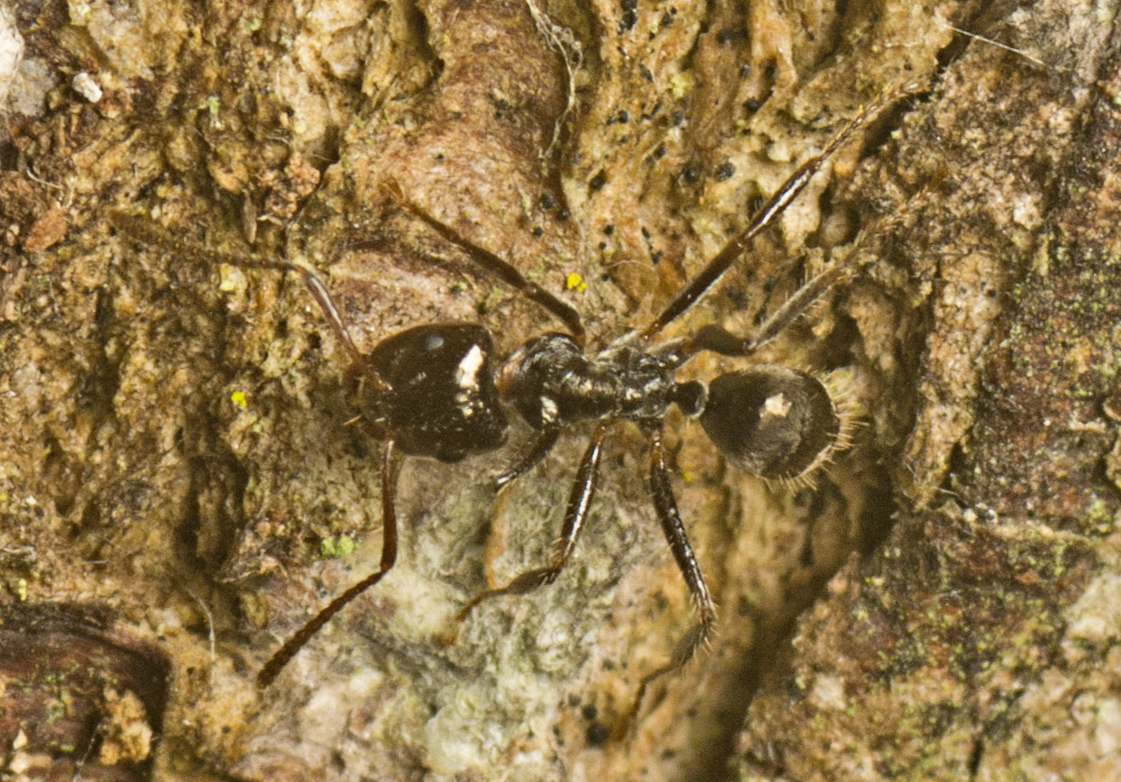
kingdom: Animalia
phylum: Arthropoda
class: Insecta
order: Hymenoptera
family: Formicidae
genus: Notoncus
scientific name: Notoncus capitatus
